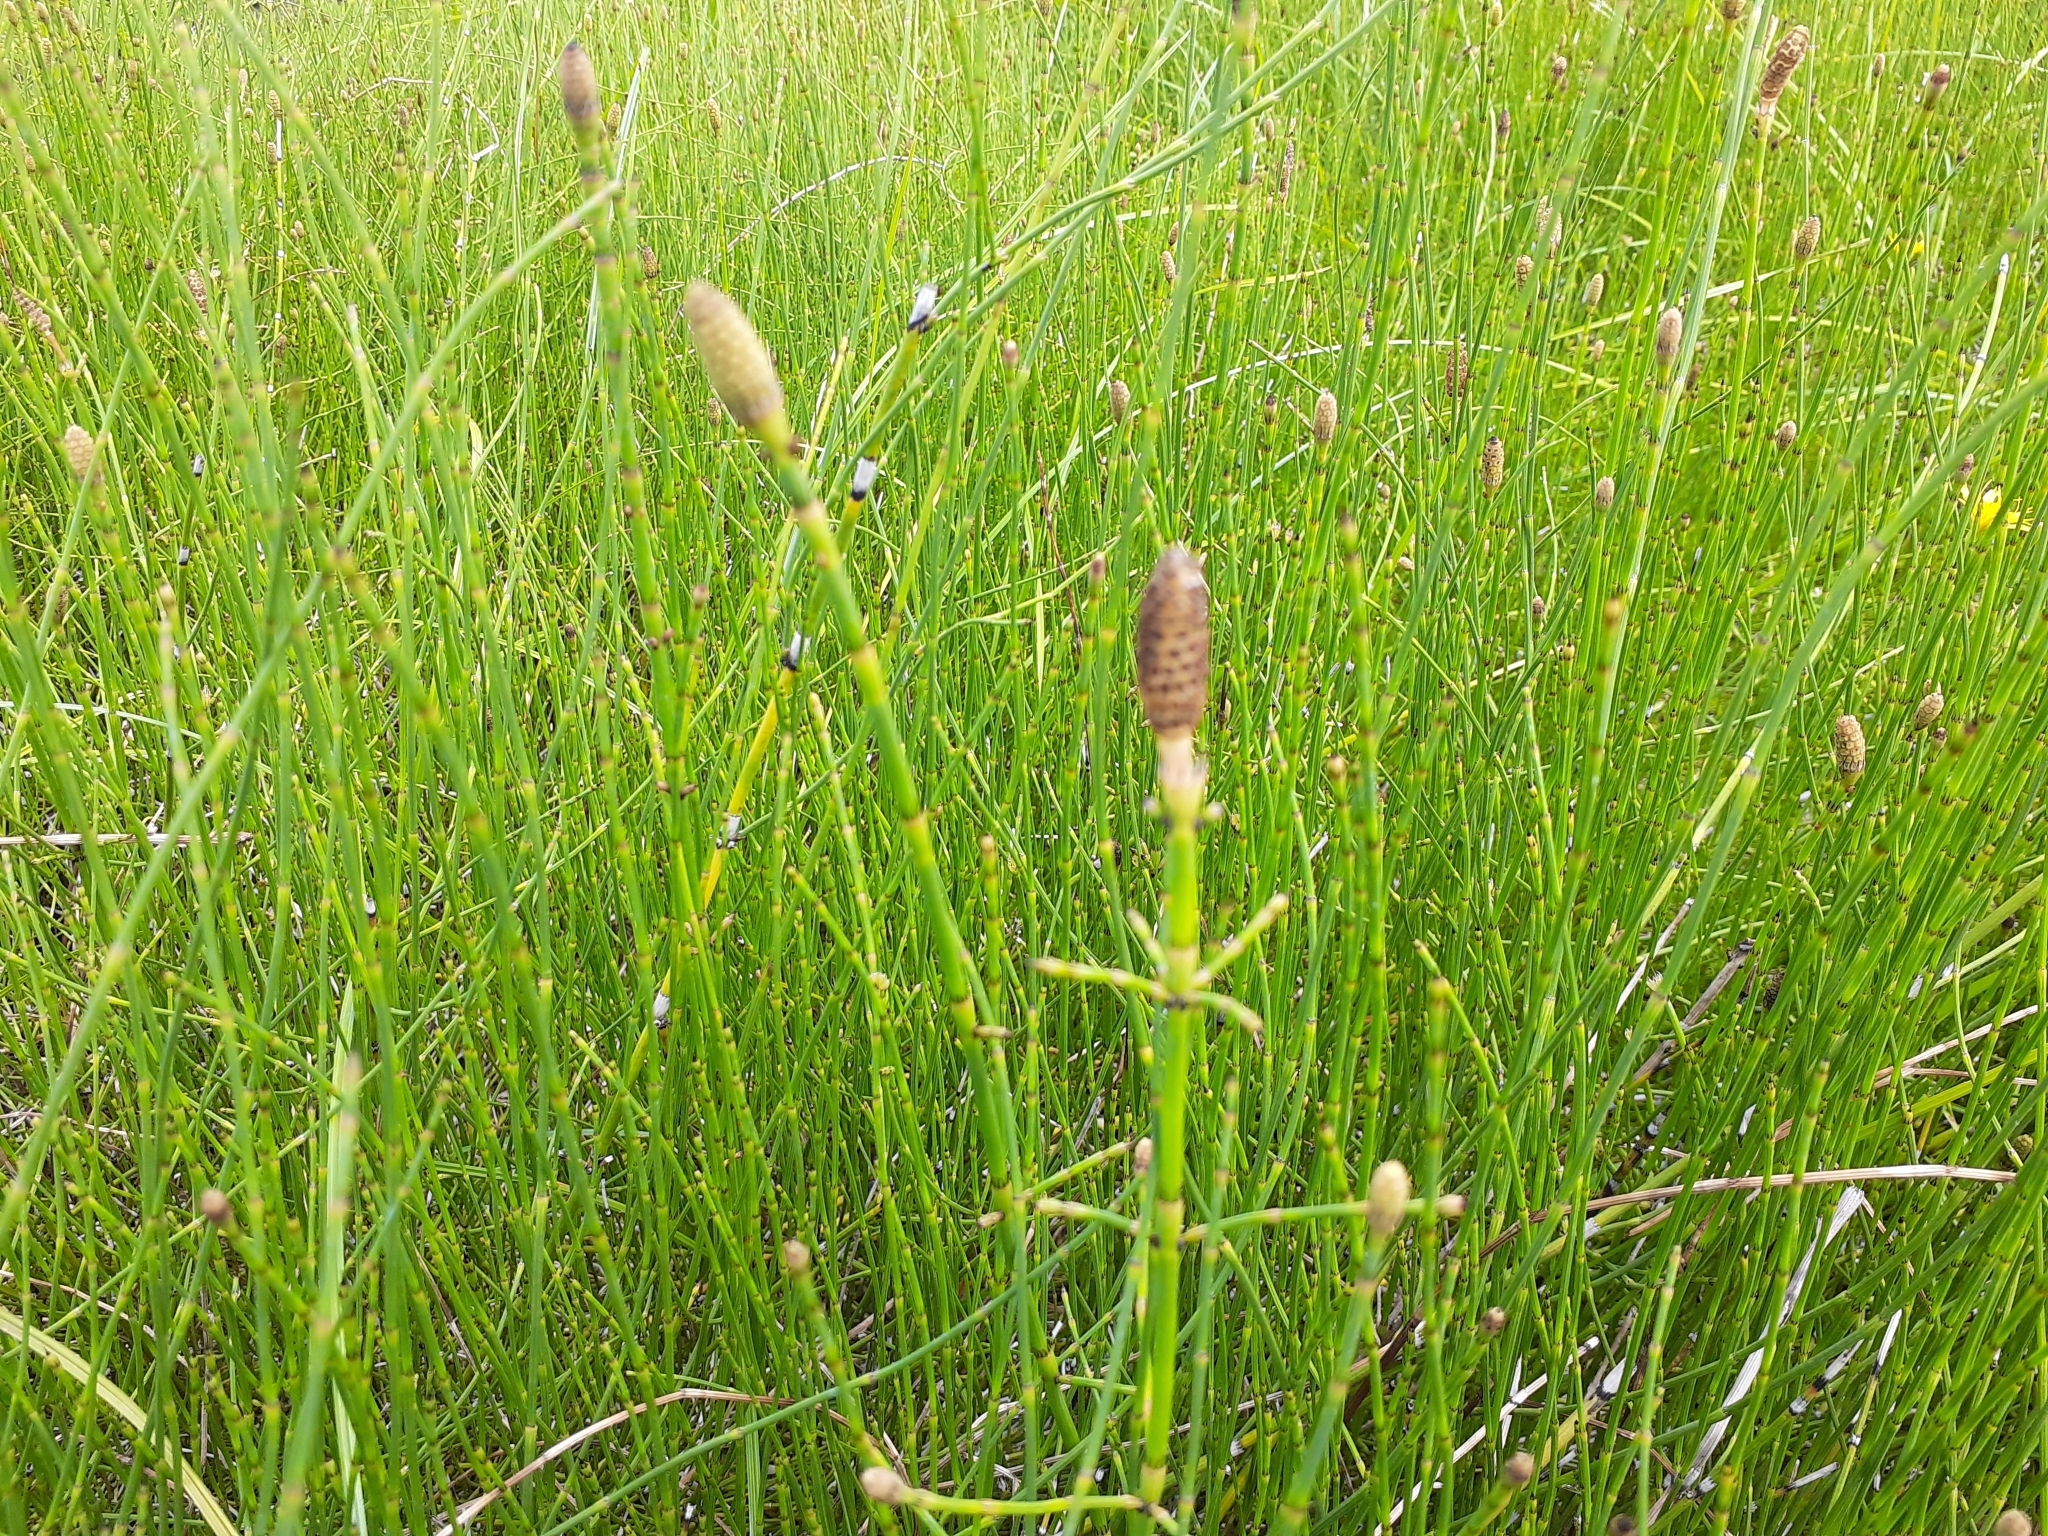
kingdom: Plantae
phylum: Tracheophyta
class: Polypodiopsida
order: Equisetales
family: Equisetaceae
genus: Equisetum
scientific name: Equisetum ramosissimum
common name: Branched horsetail
